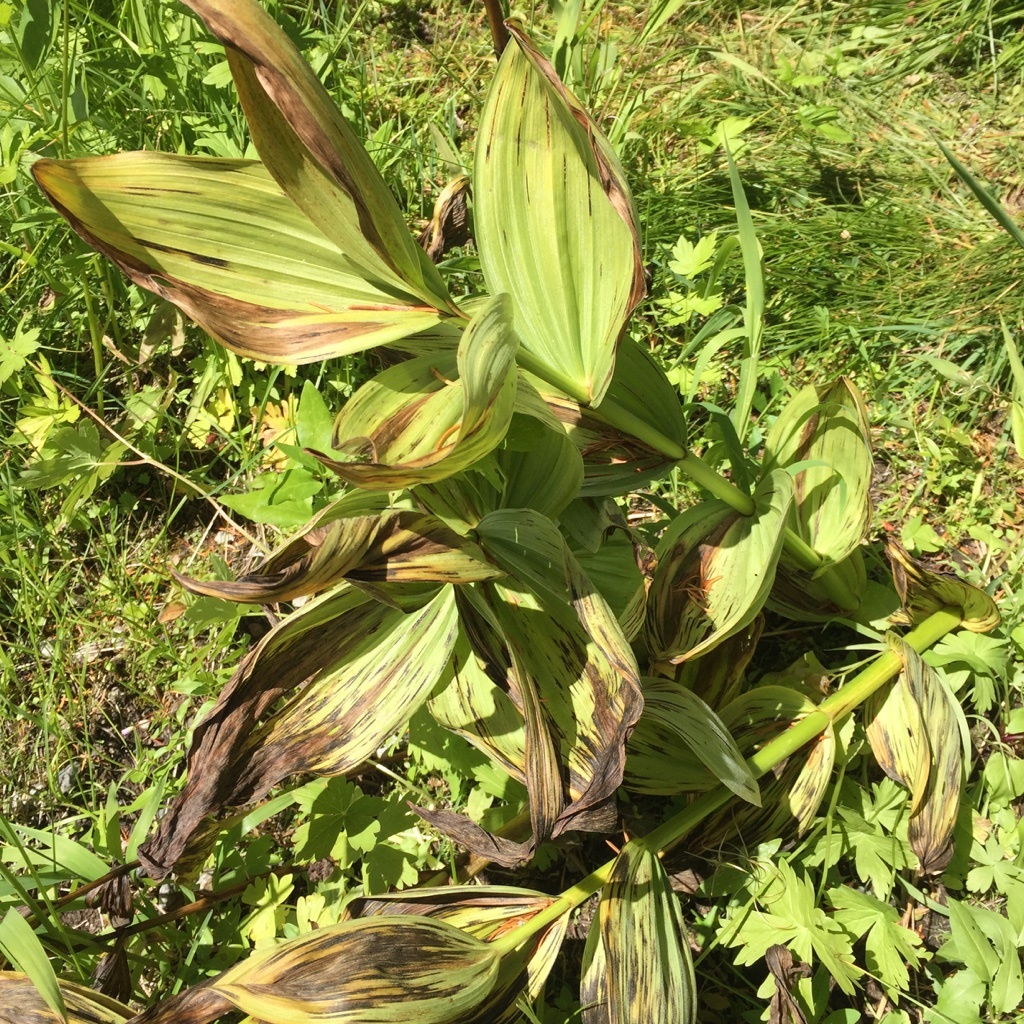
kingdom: Plantae
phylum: Tracheophyta
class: Liliopsida
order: Liliales
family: Melanthiaceae
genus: Veratrum
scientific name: Veratrum californicum
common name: California veratrum
